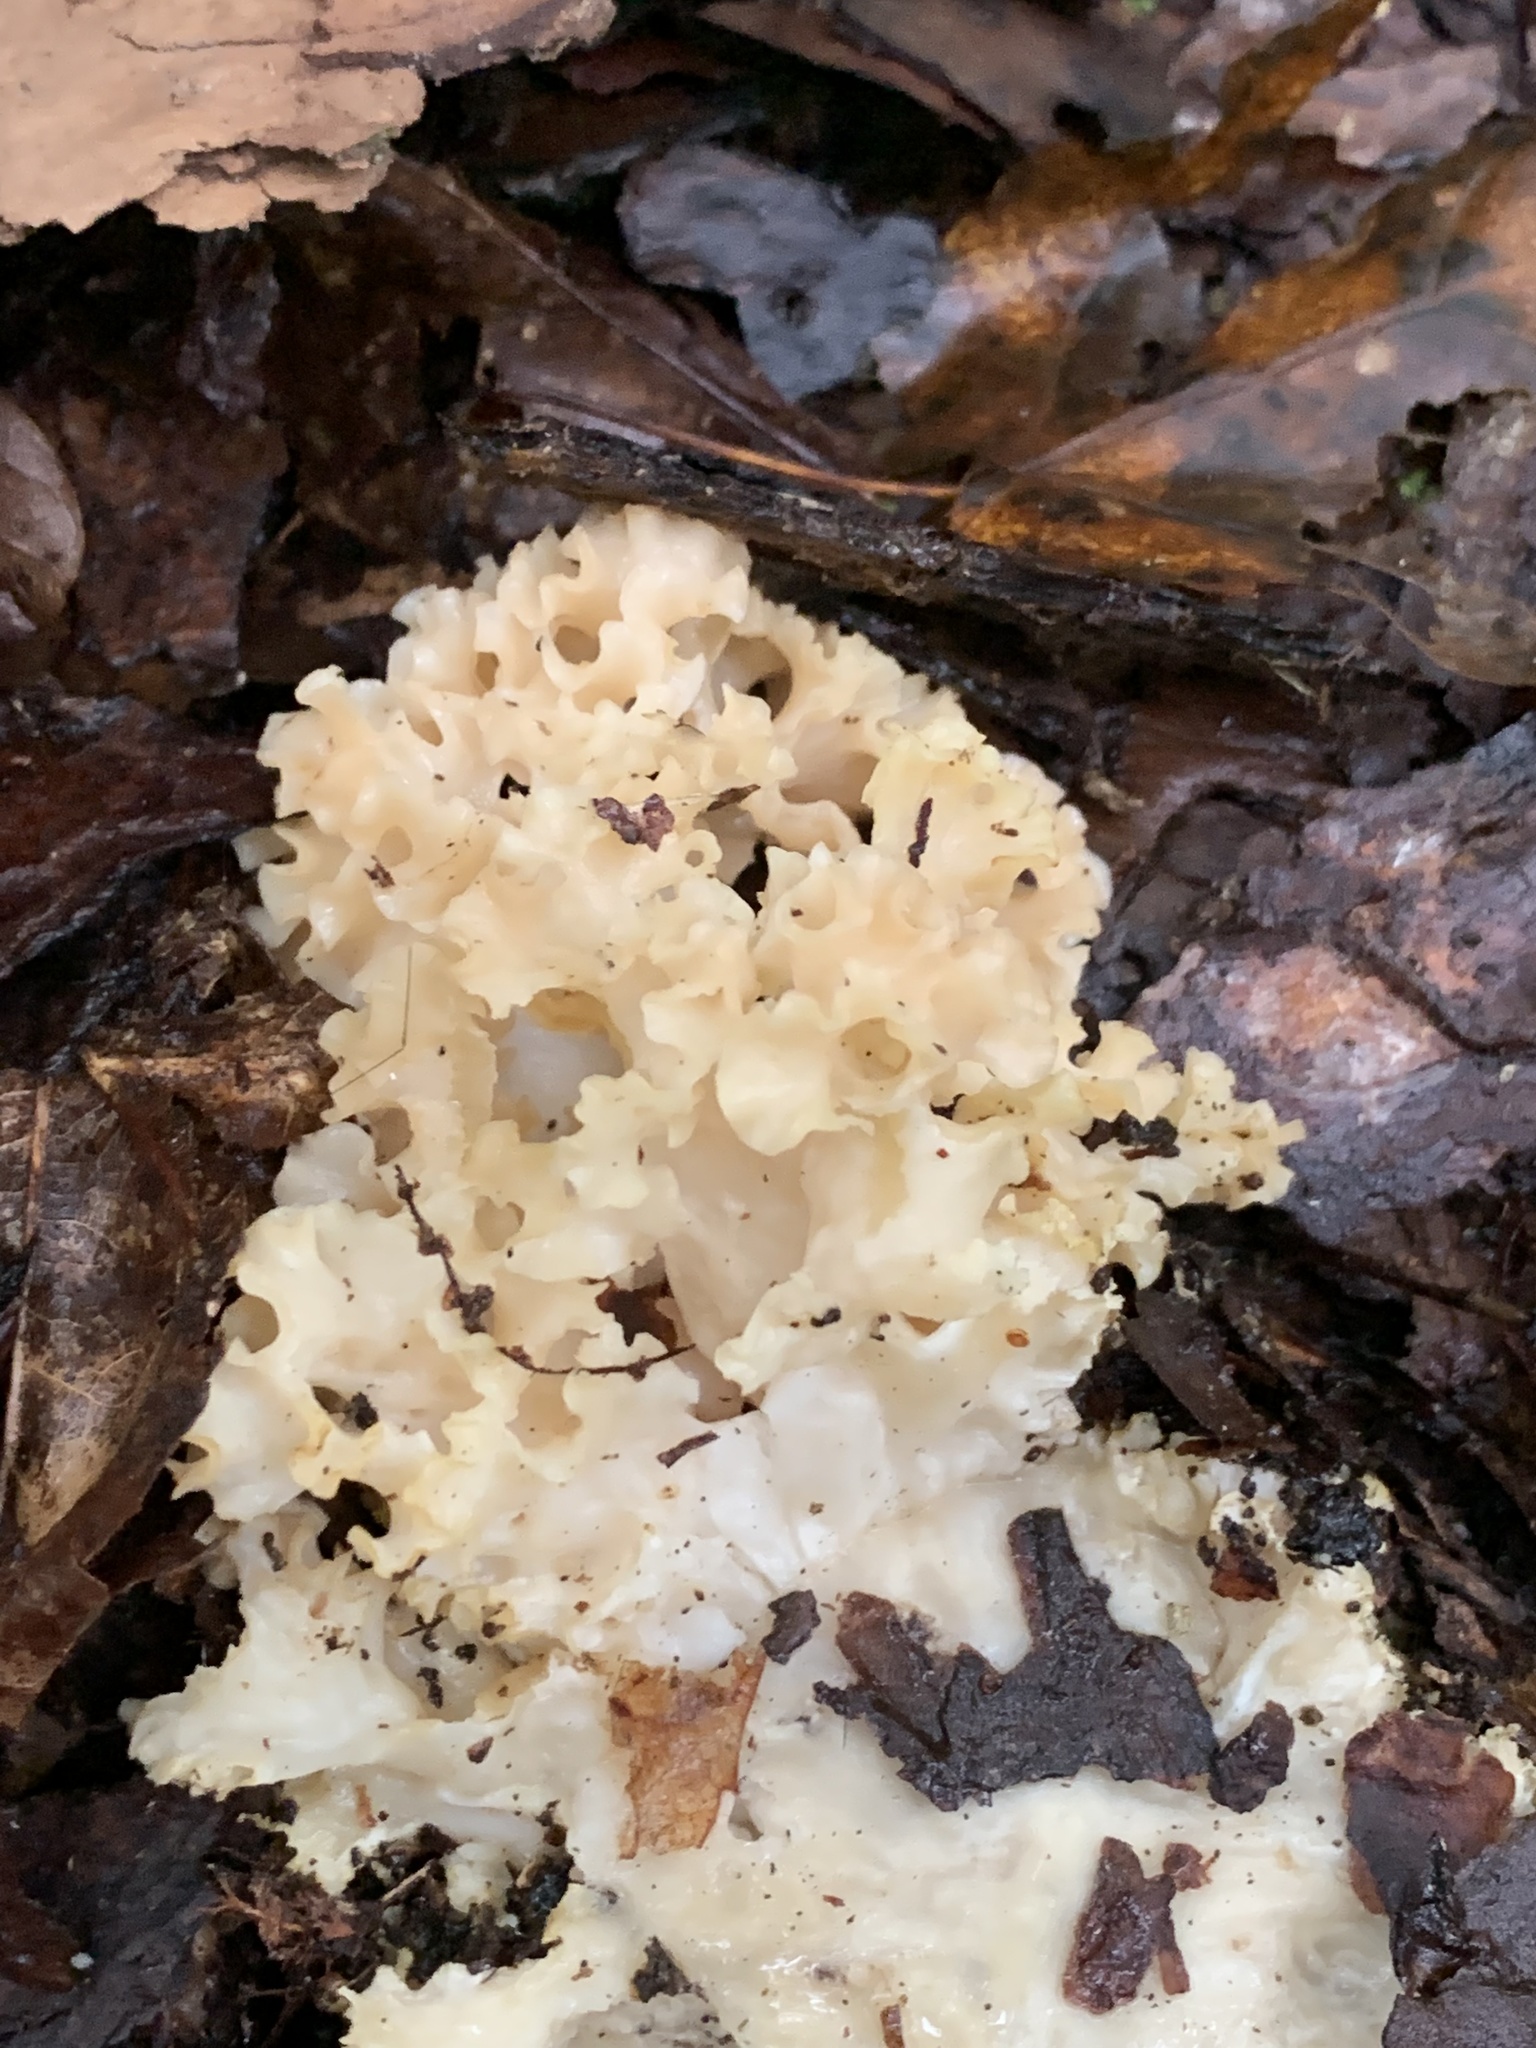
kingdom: Fungi
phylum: Basidiomycota
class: Agaricomycetes
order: Polyporales
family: Sparassidaceae
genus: Sparassis
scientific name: Sparassis americana
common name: American cauliflower mushroom
